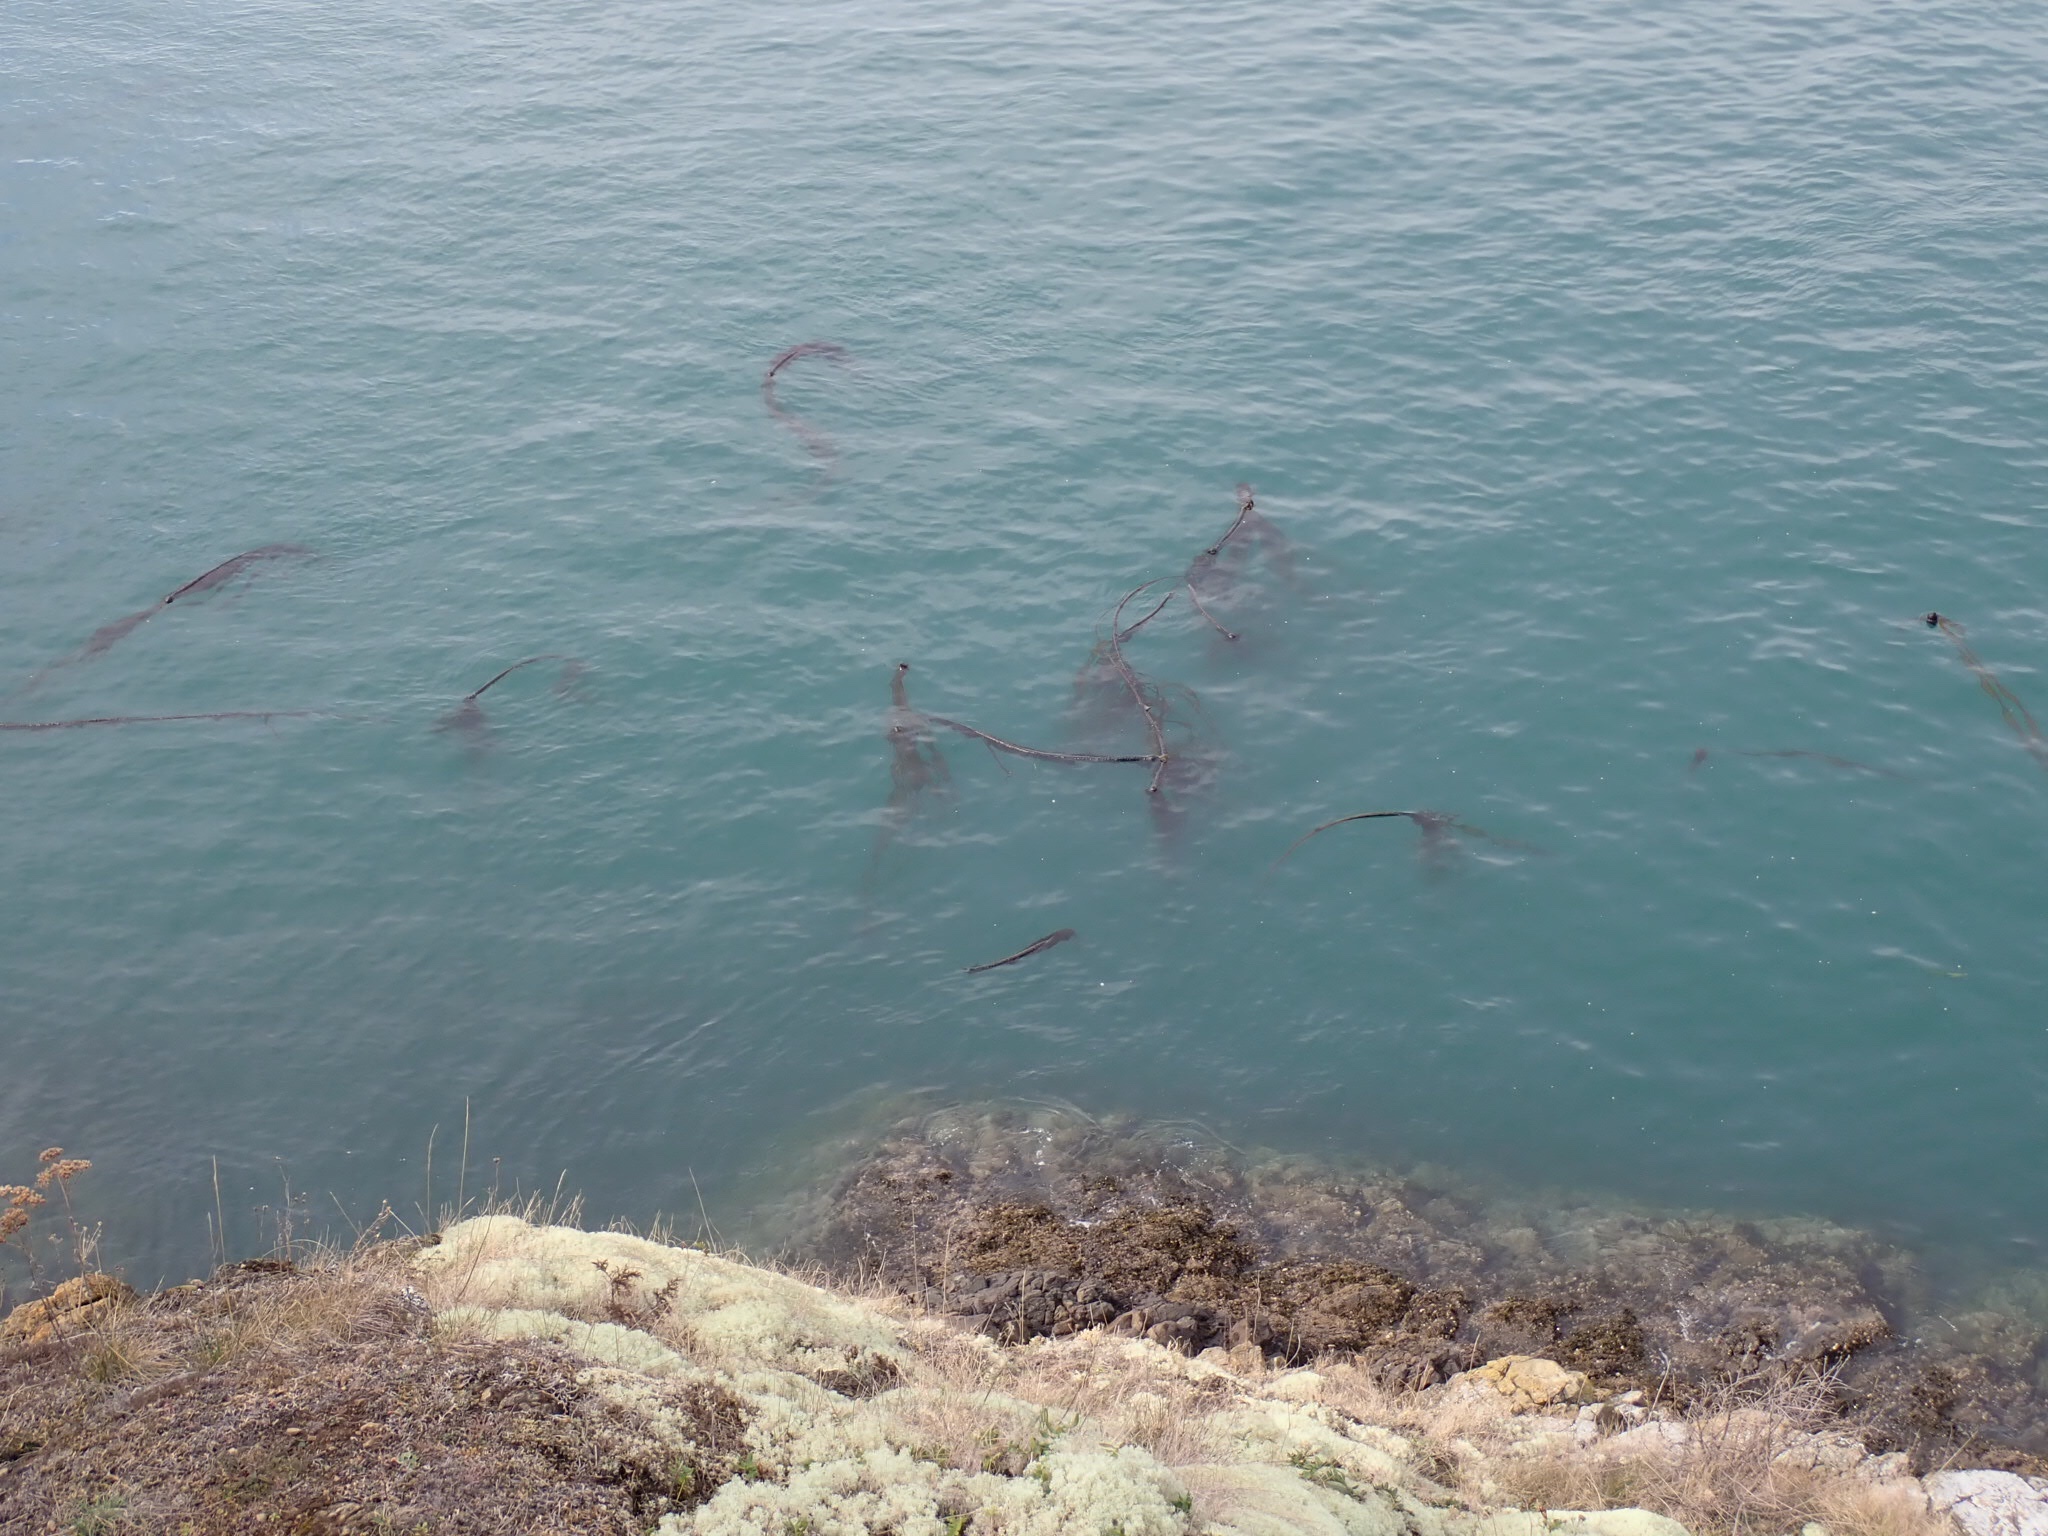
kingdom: Chromista
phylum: Ochrophyta
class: Phaeophyceae
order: Laminariales
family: Laminariaceae
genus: Nereocystis
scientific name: Nereocystis luetkeana
